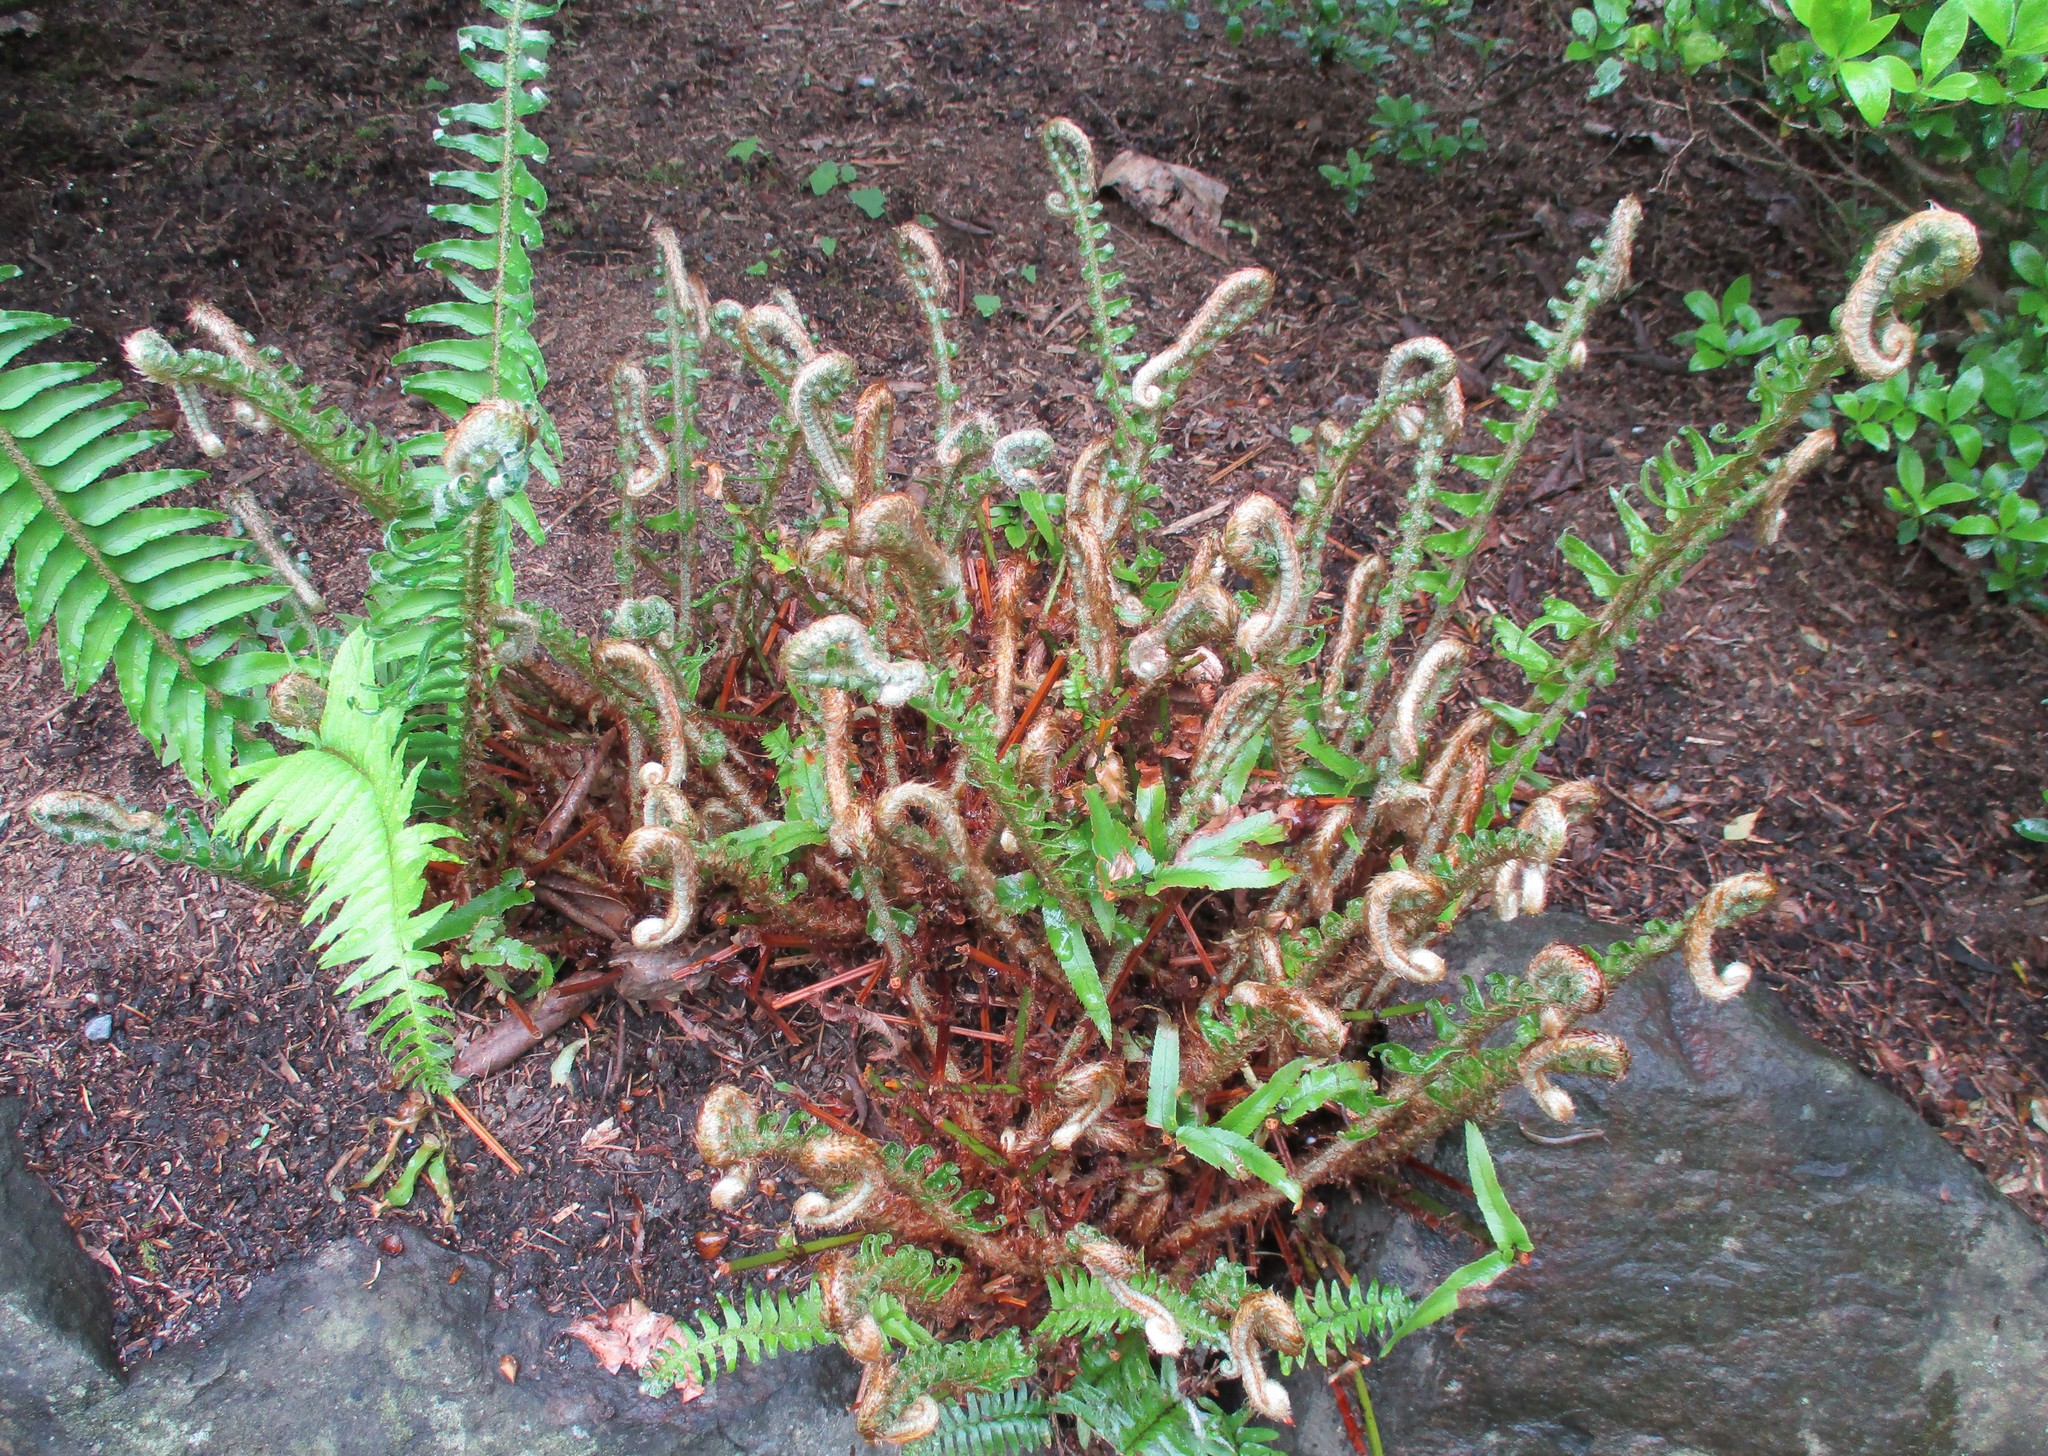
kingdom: Plantae
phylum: Tracheophyta
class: Polypodiopsida
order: Polypodiales
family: Dryopteridaceae
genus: Polystichum
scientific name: Polystichum munitum
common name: Western sword-fern
